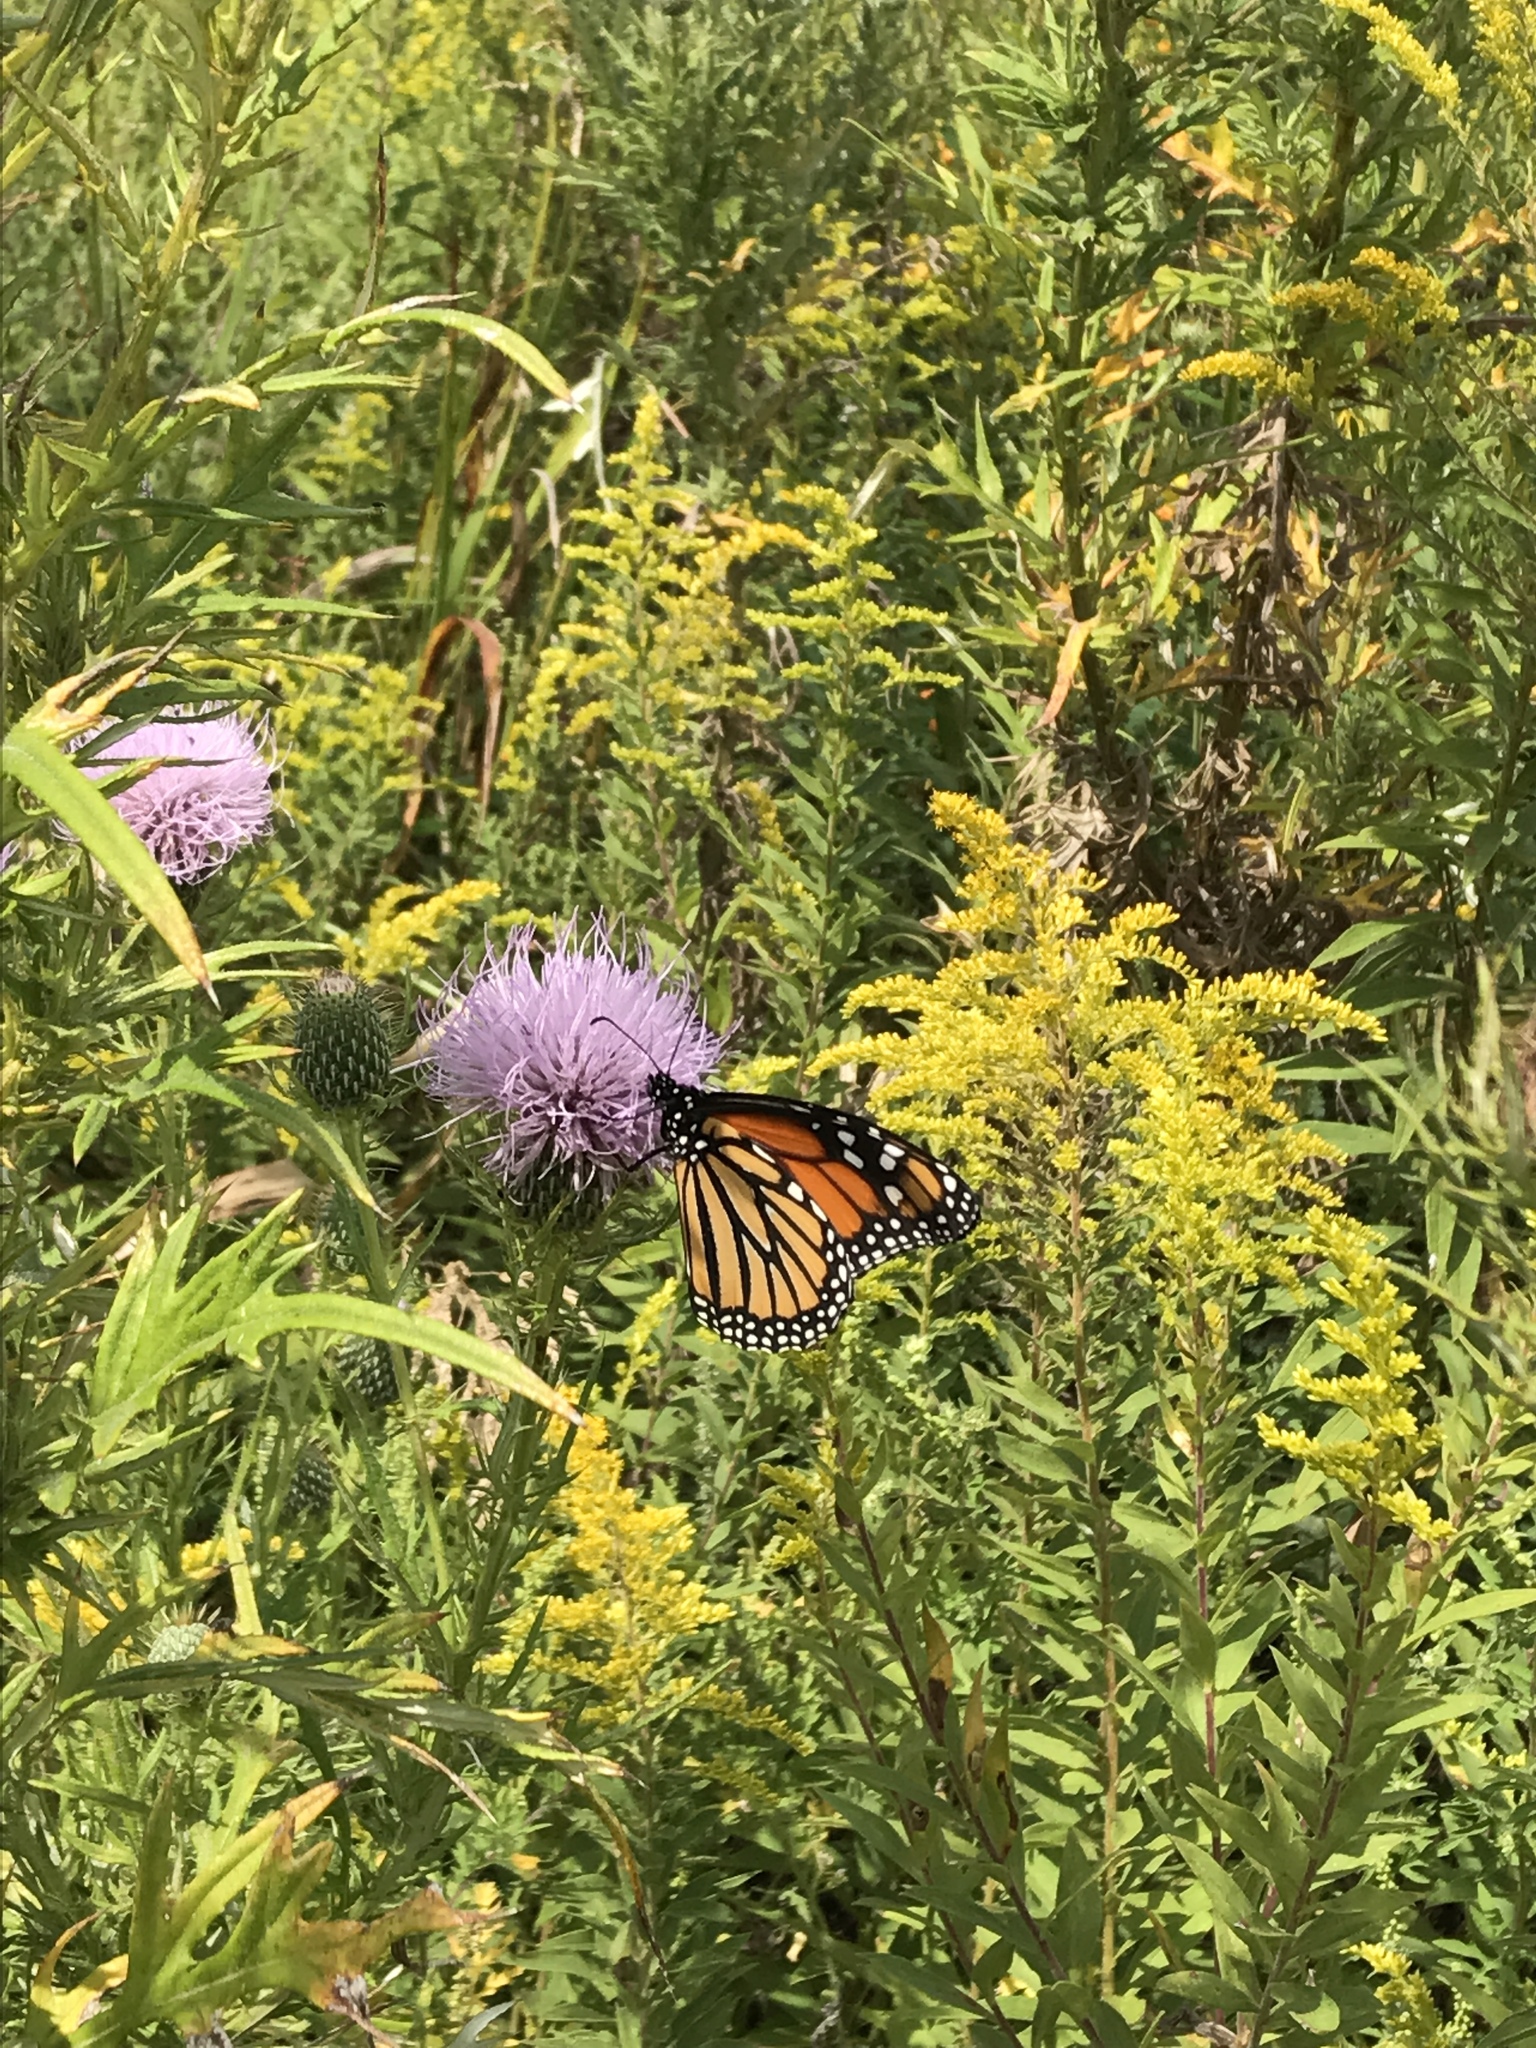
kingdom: Animalia
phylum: Arthropoda
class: Insecta
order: Lepidoptera
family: Nymphalidae
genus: Danaus
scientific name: Danaus plexippus
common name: Monarch
